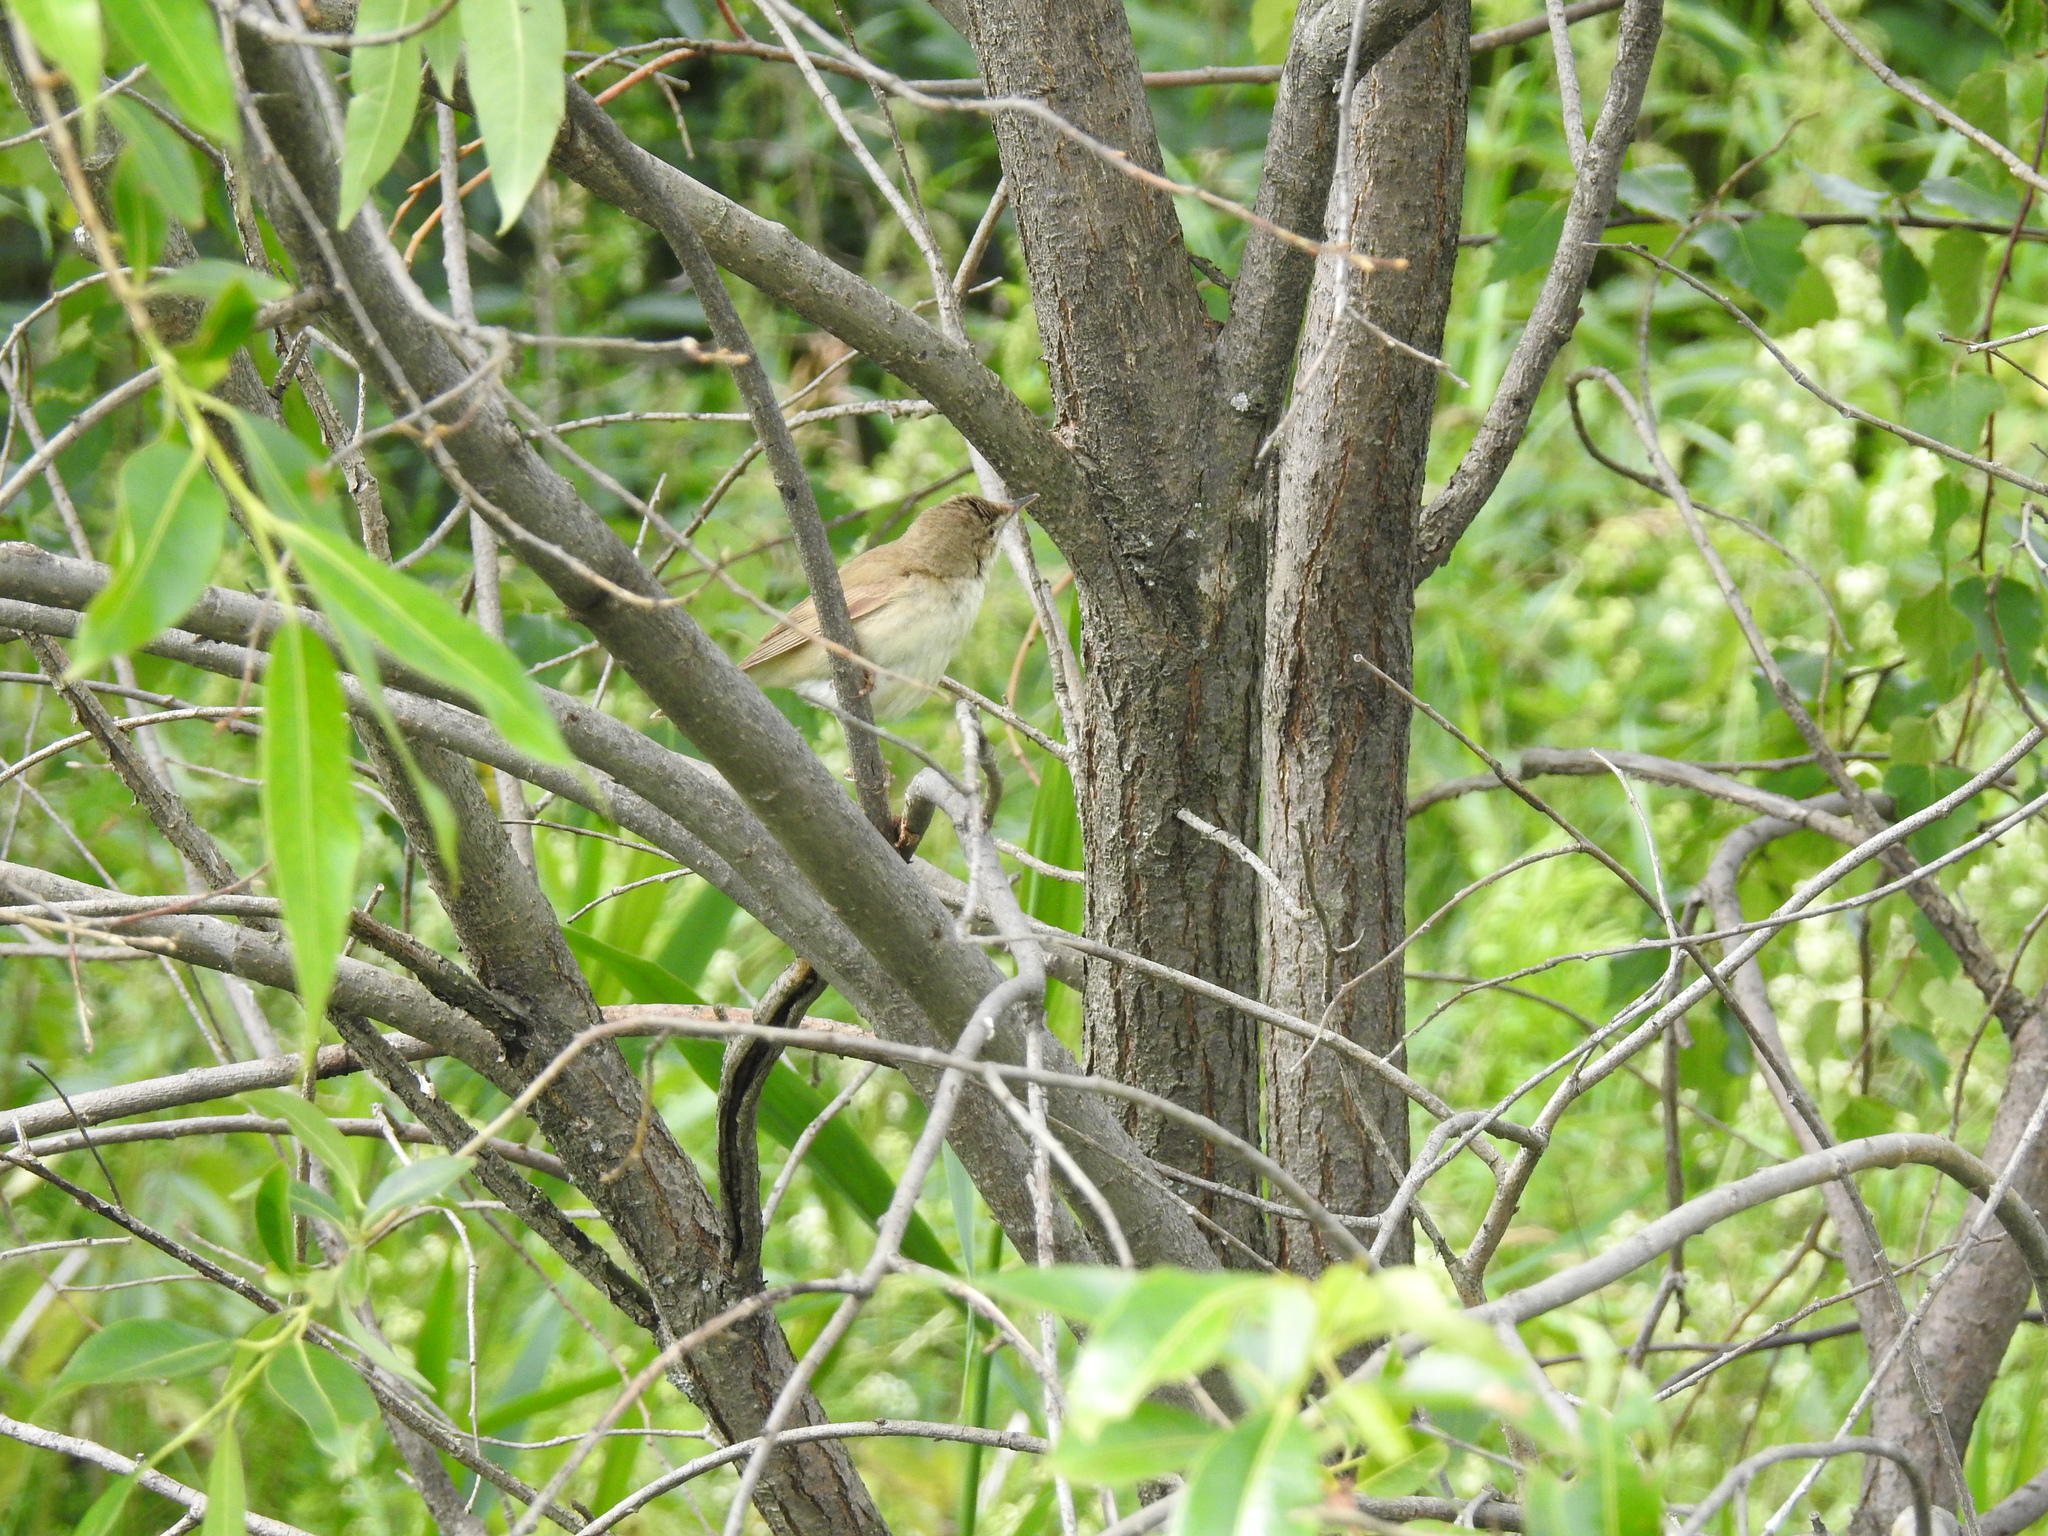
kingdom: Animalia
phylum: Chordata
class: Aves
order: Passeriformes
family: Acrocephalidae
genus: Acrocephalus
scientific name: Acrocephalus dumetorum
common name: Blyth's reed warbler
